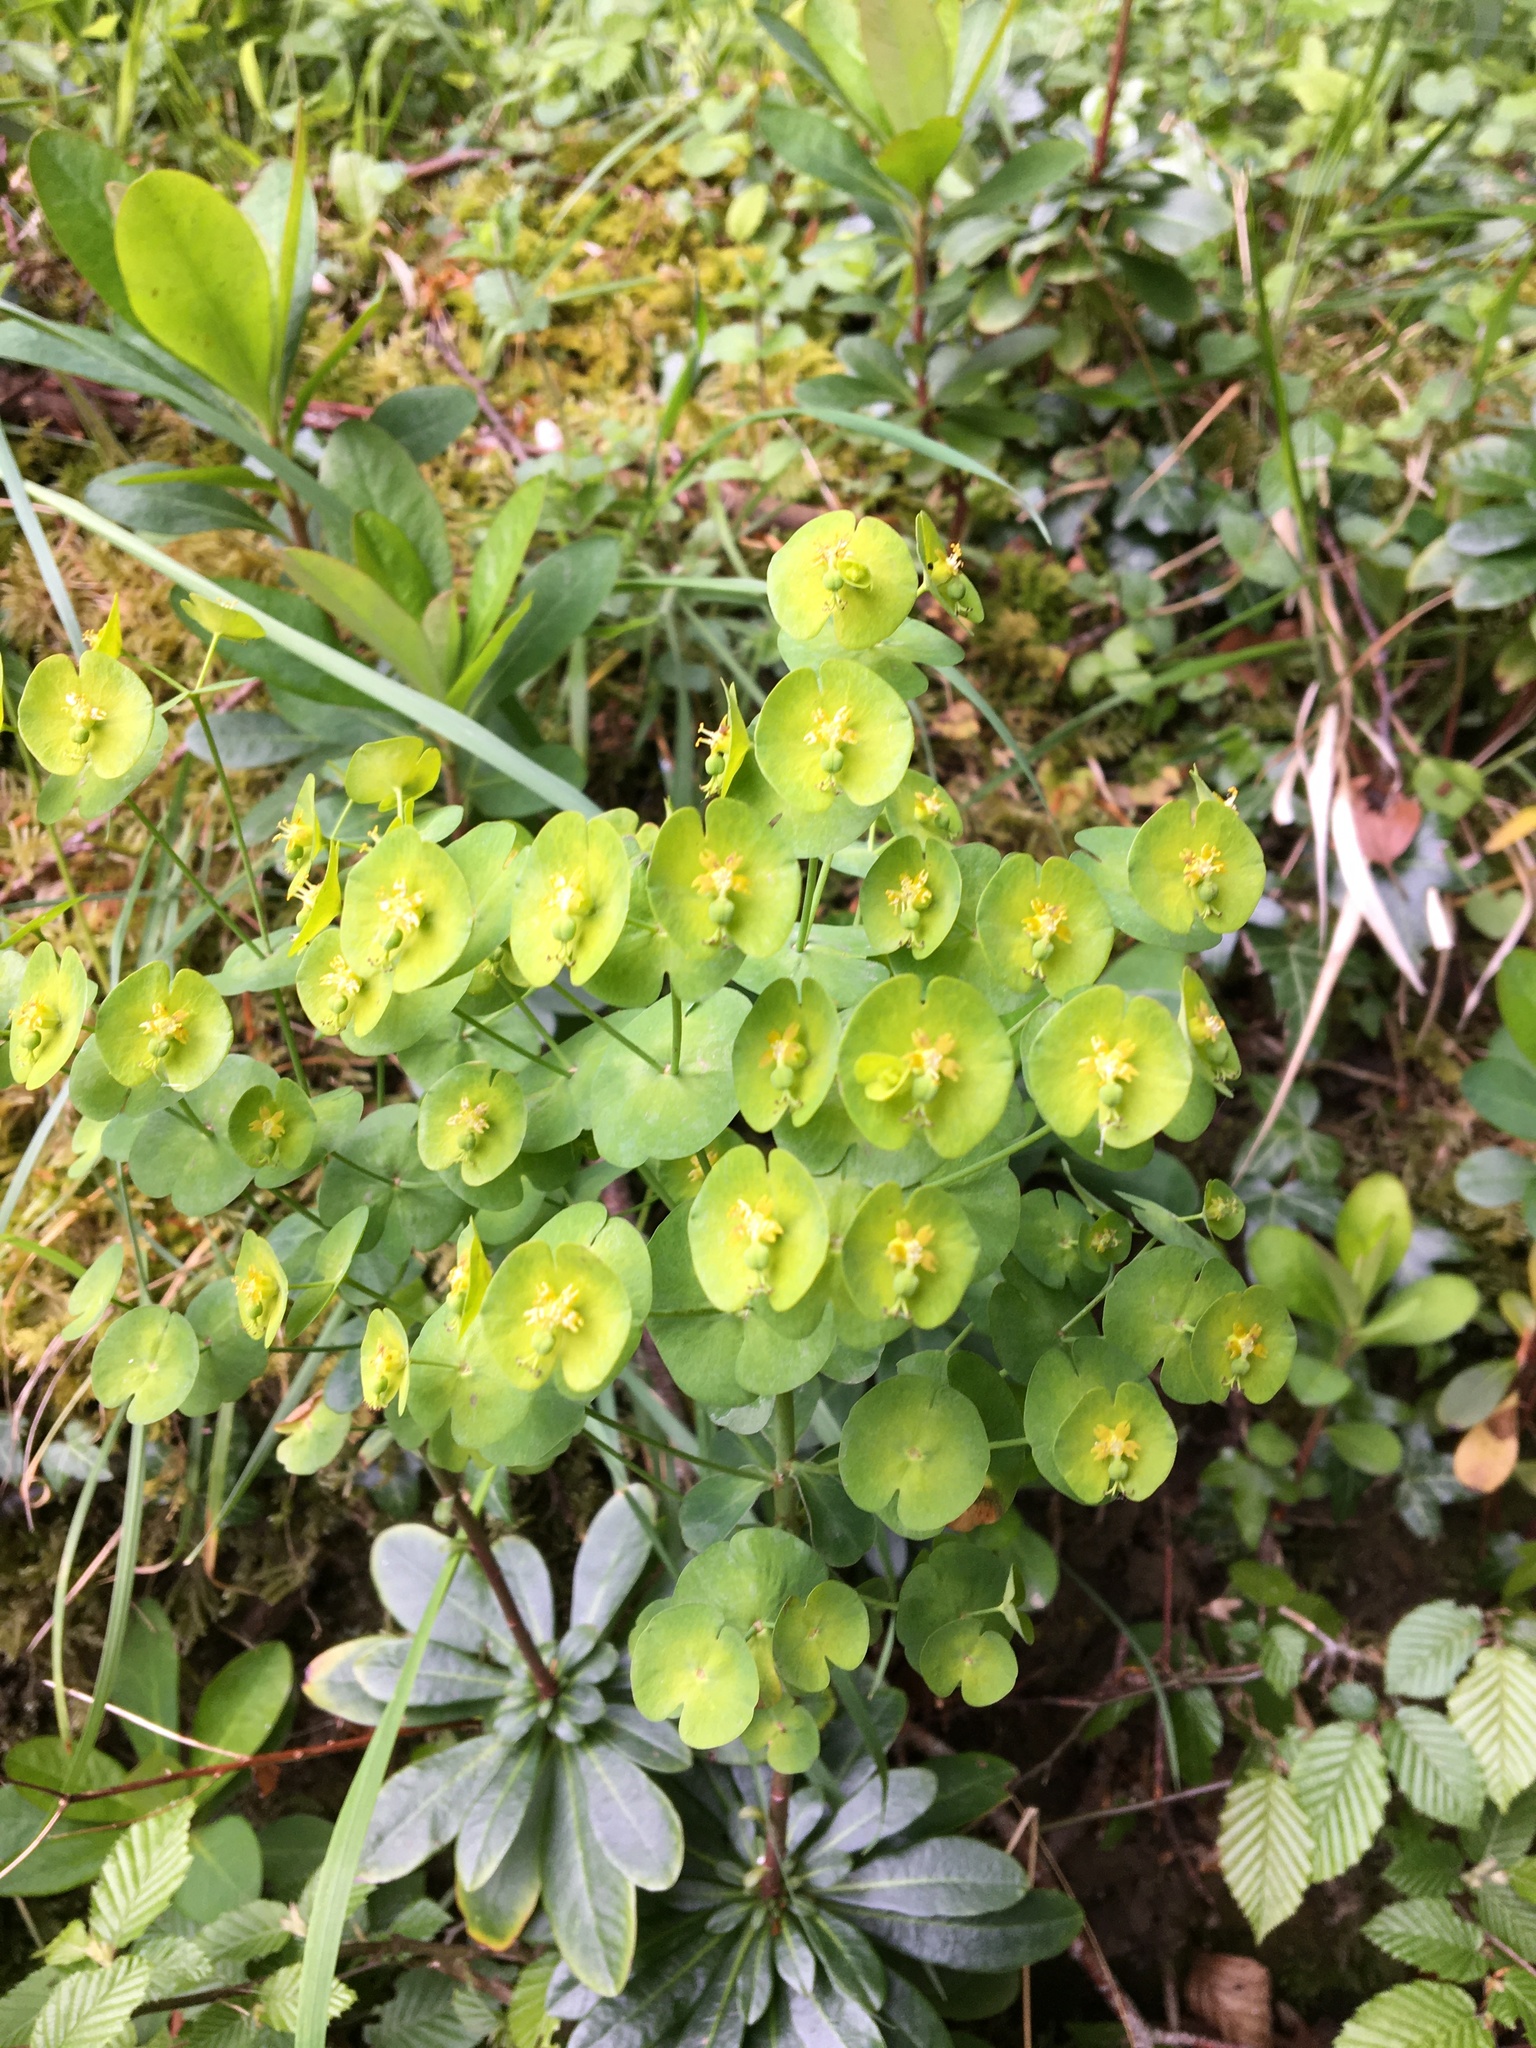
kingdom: Plantae
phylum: Tracheophyta
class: Magnoliopsida
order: Malpighiales
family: Euphorbiaceae
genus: Euphorbia
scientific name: Euphorbia amygdaloides
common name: Wood spurge
